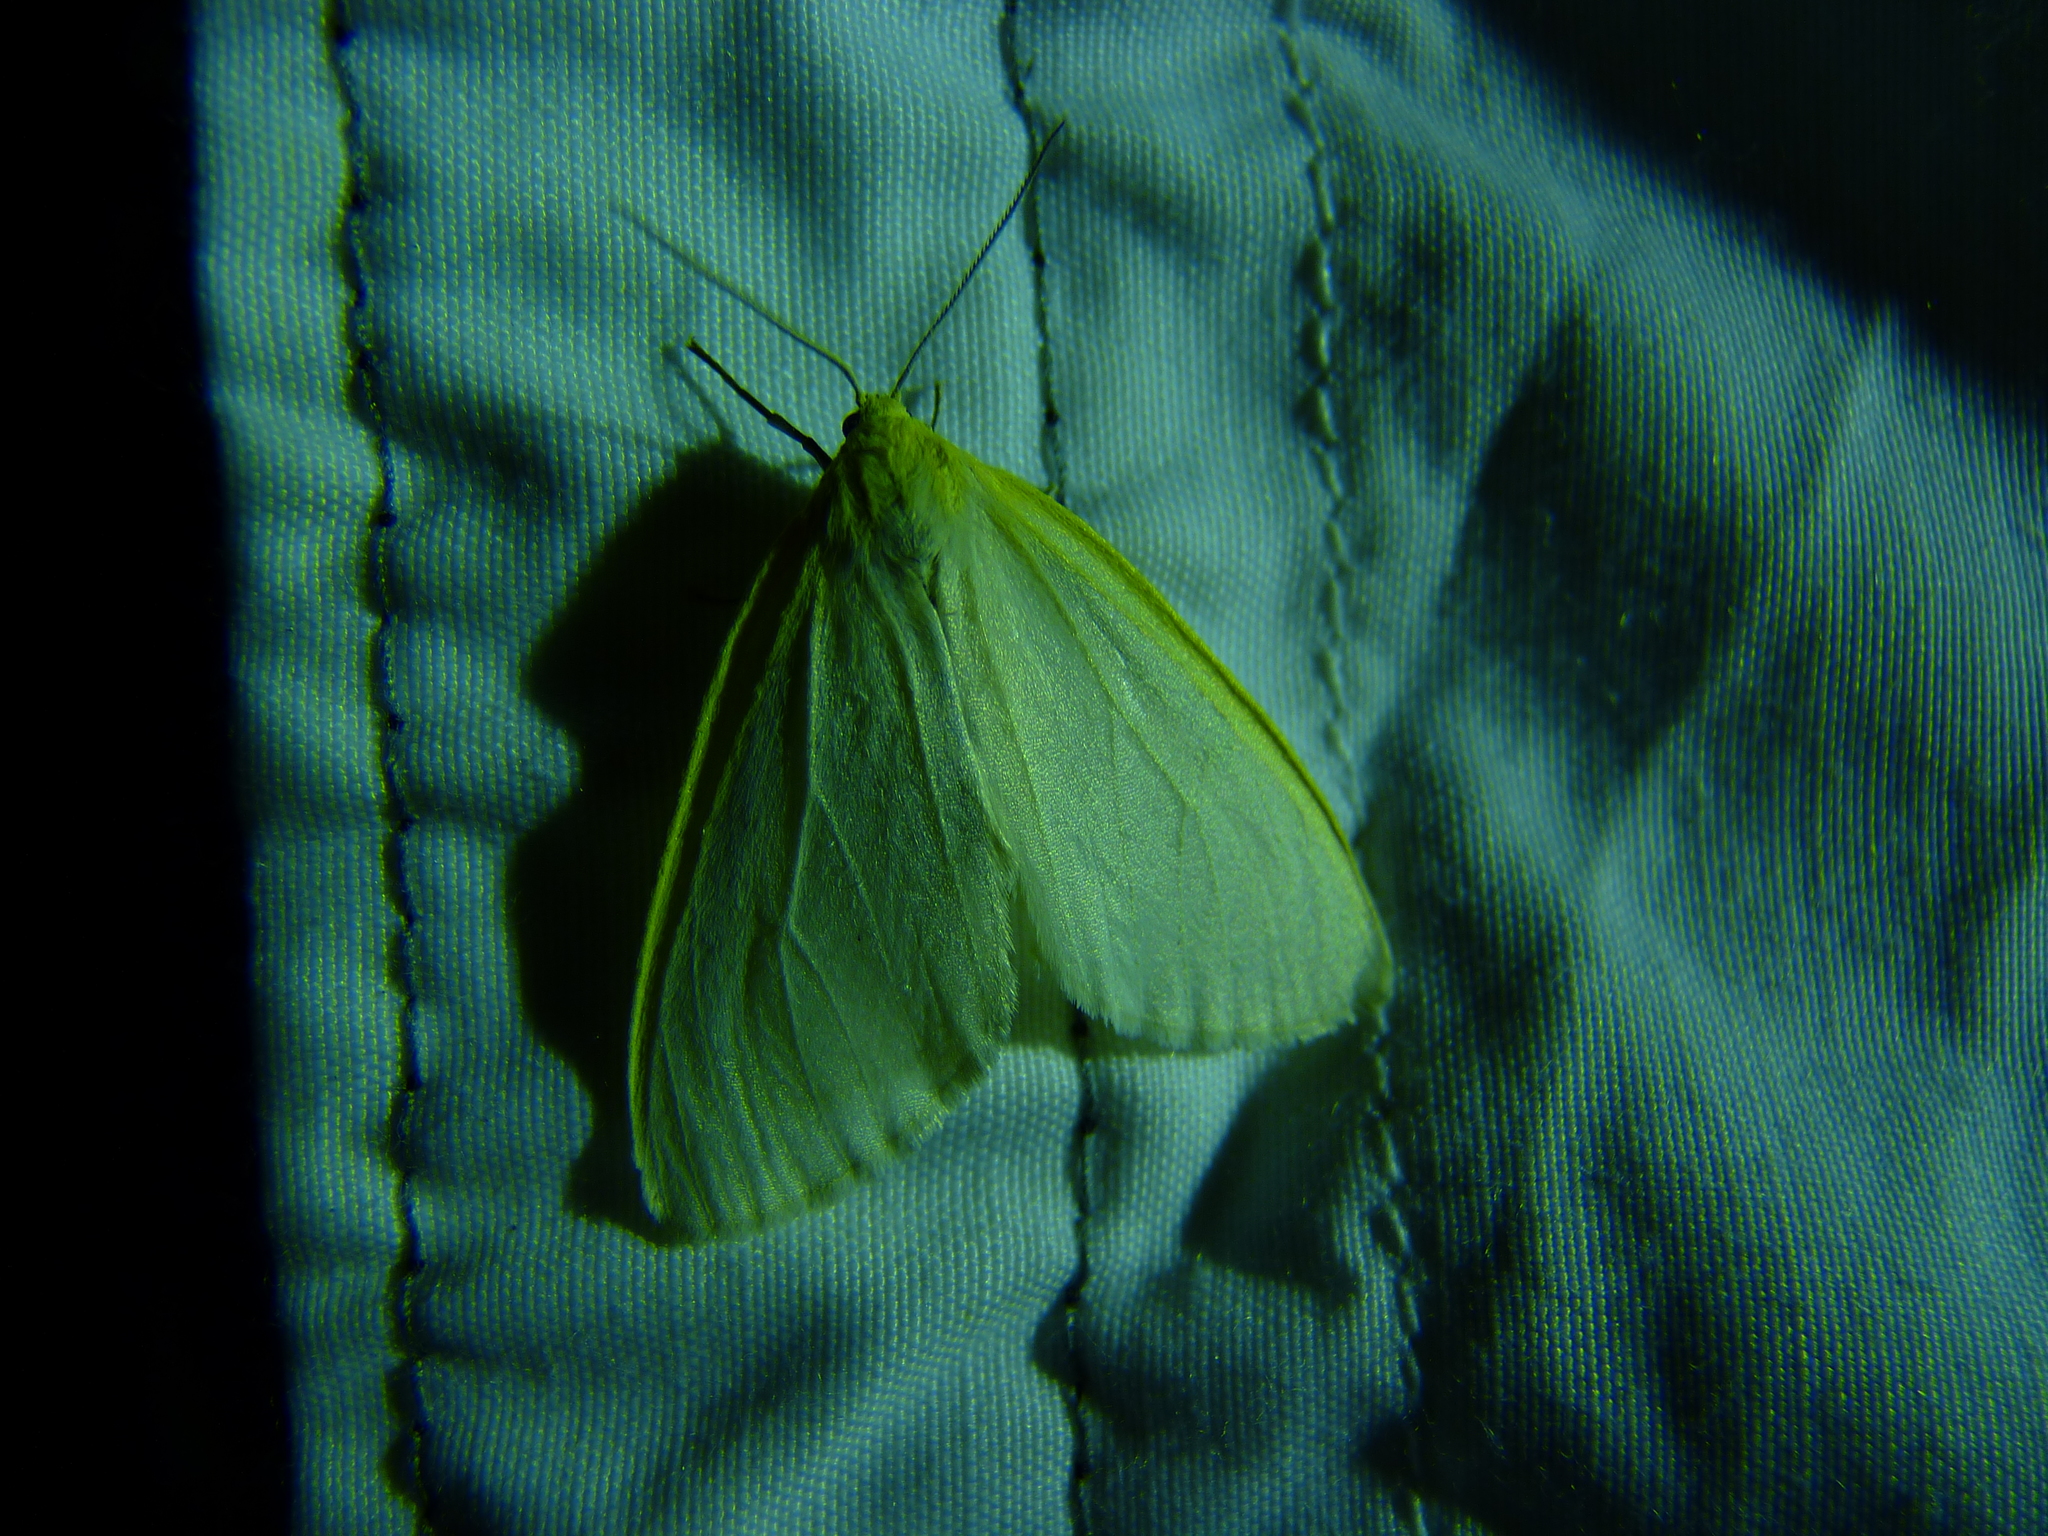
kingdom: Animalia
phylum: Arthropoda
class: Insecta
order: Lepidoptera
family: Erebidae
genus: Cycnia
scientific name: Cycnia tenera
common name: Delicate cycnia moth
